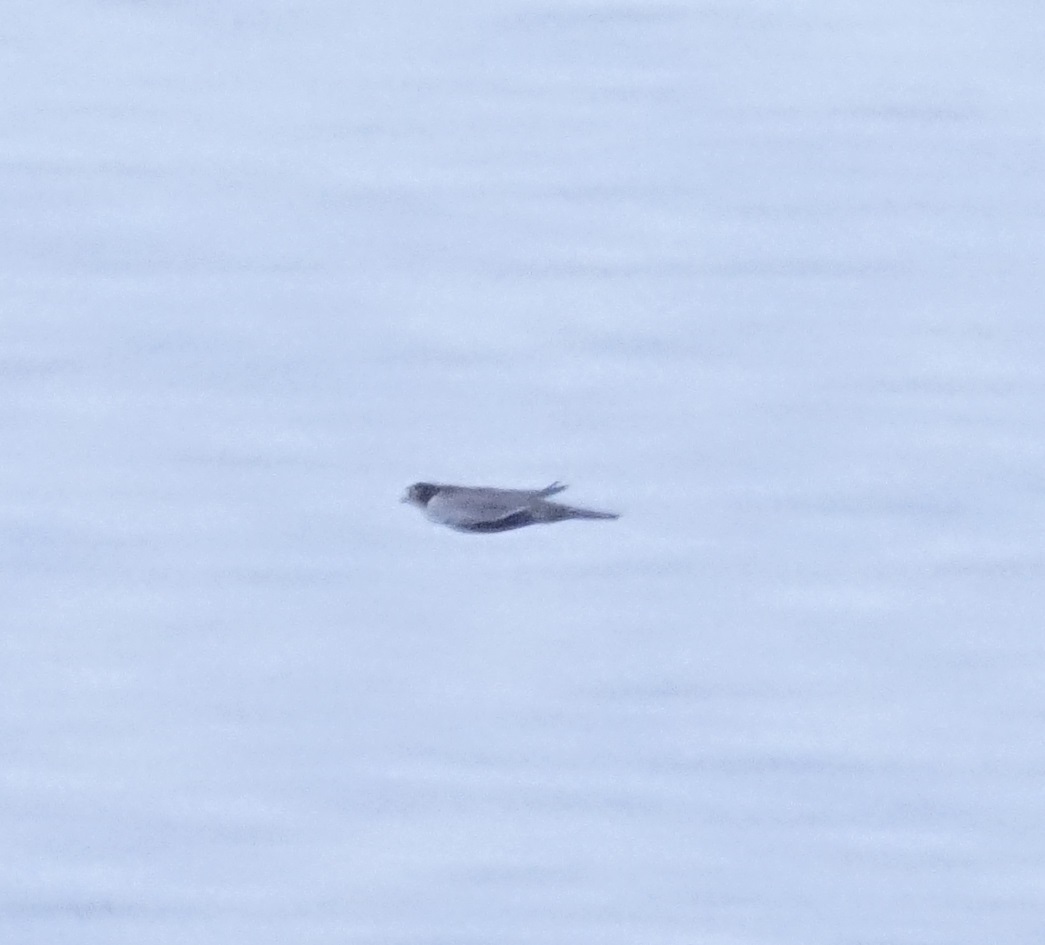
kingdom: Animalia
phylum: Chordata
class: Aves
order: Falconiformes
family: Falconidae
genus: Falco
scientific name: Falco peregrinus
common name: Peregrine falcon
